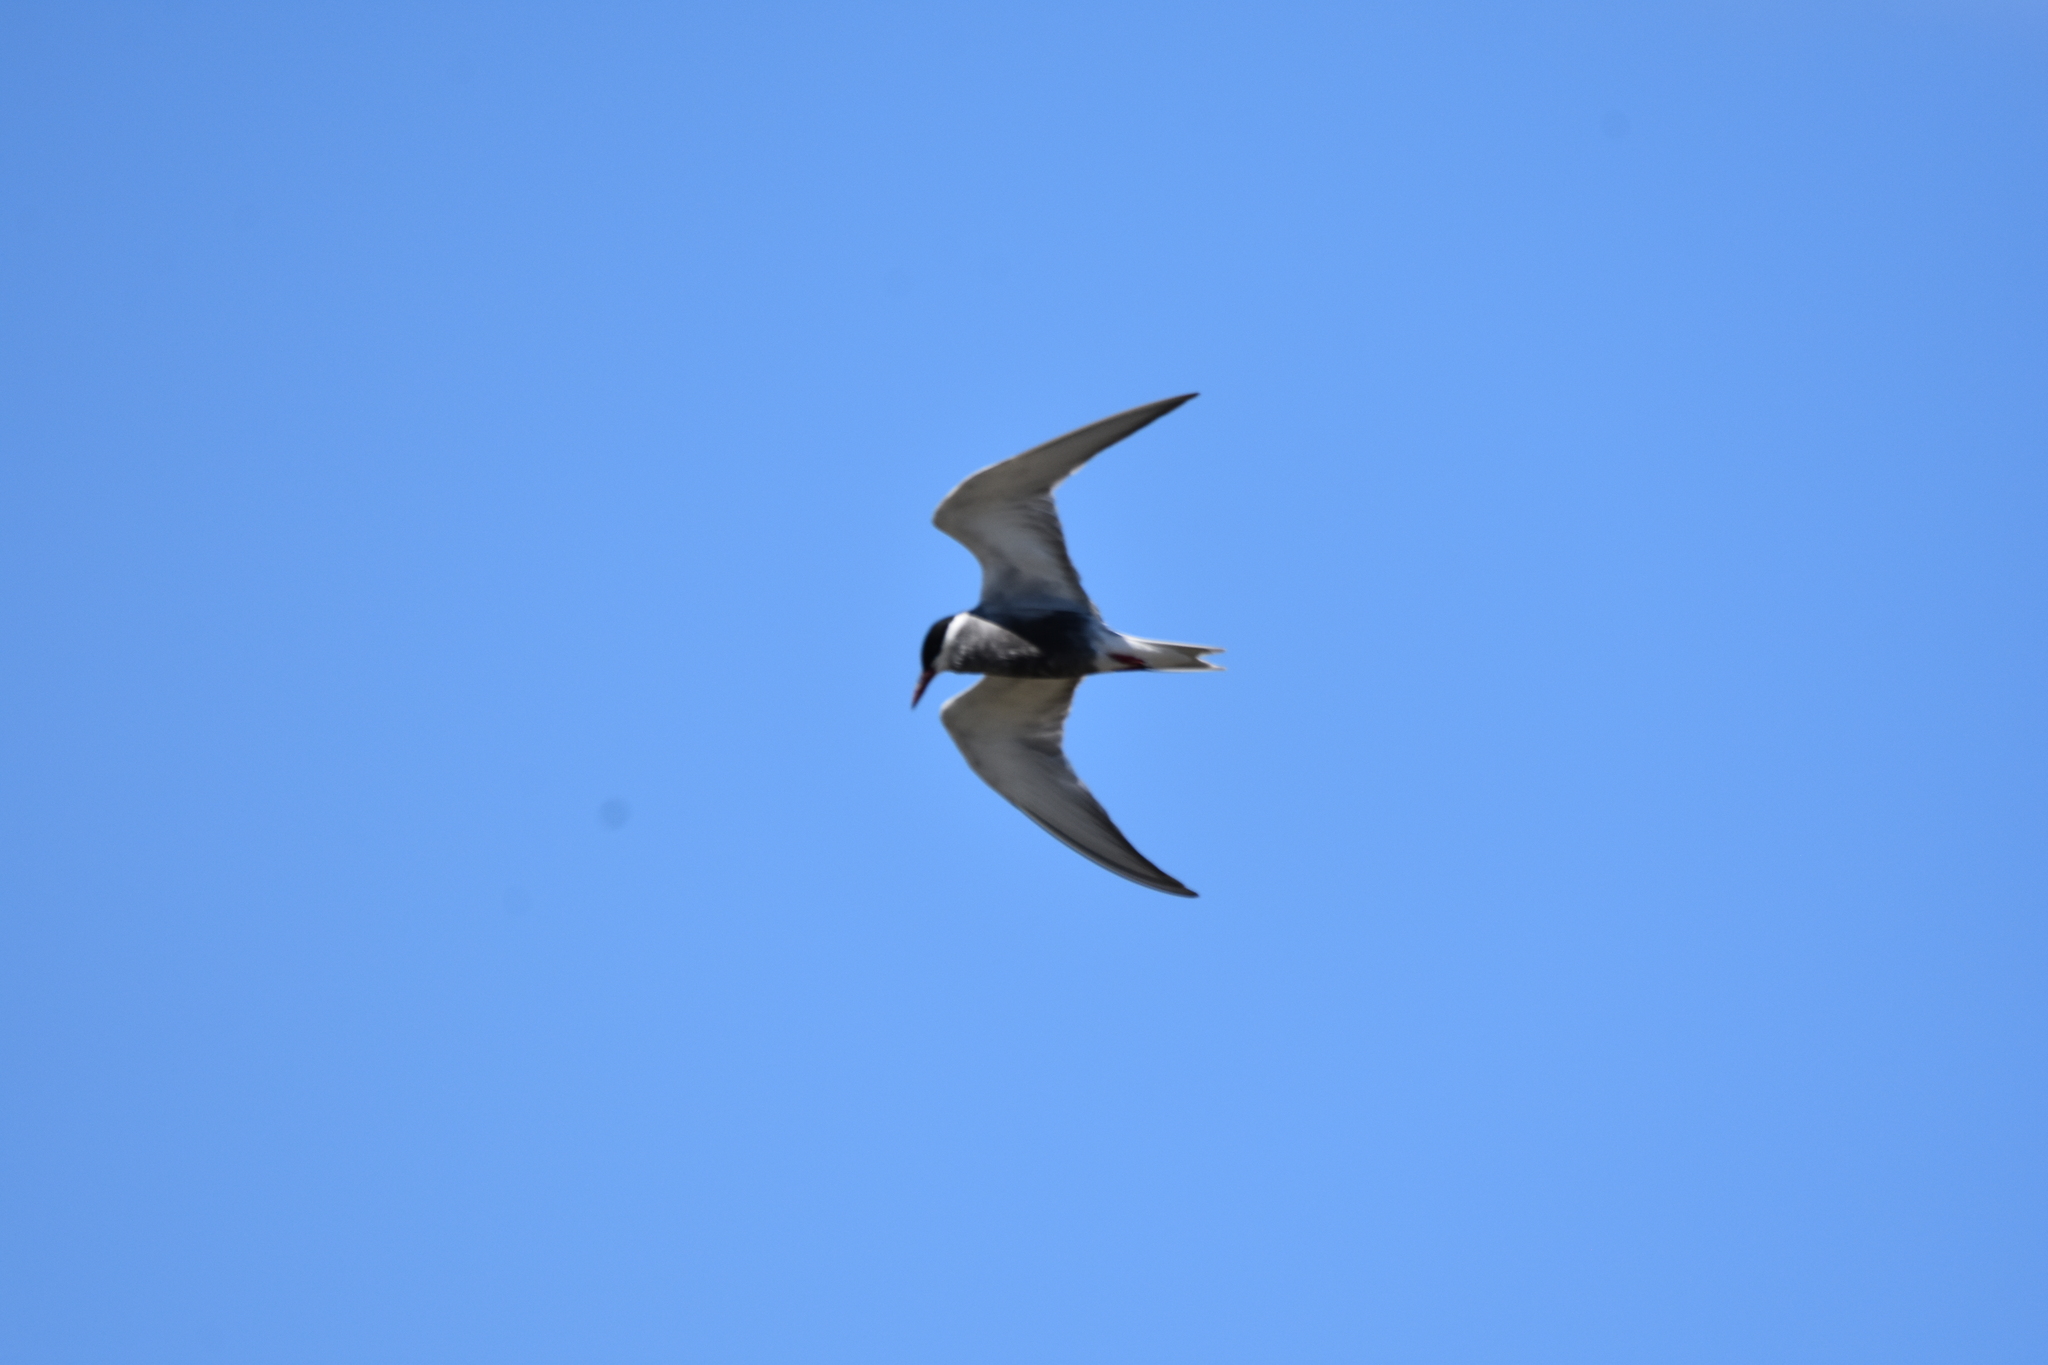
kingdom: Animalia
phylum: Chordata
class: Aves
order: Charadriiformes
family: Laridae
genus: Chlidonias
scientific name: Chlidonias hybrida
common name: Whiskered tern
